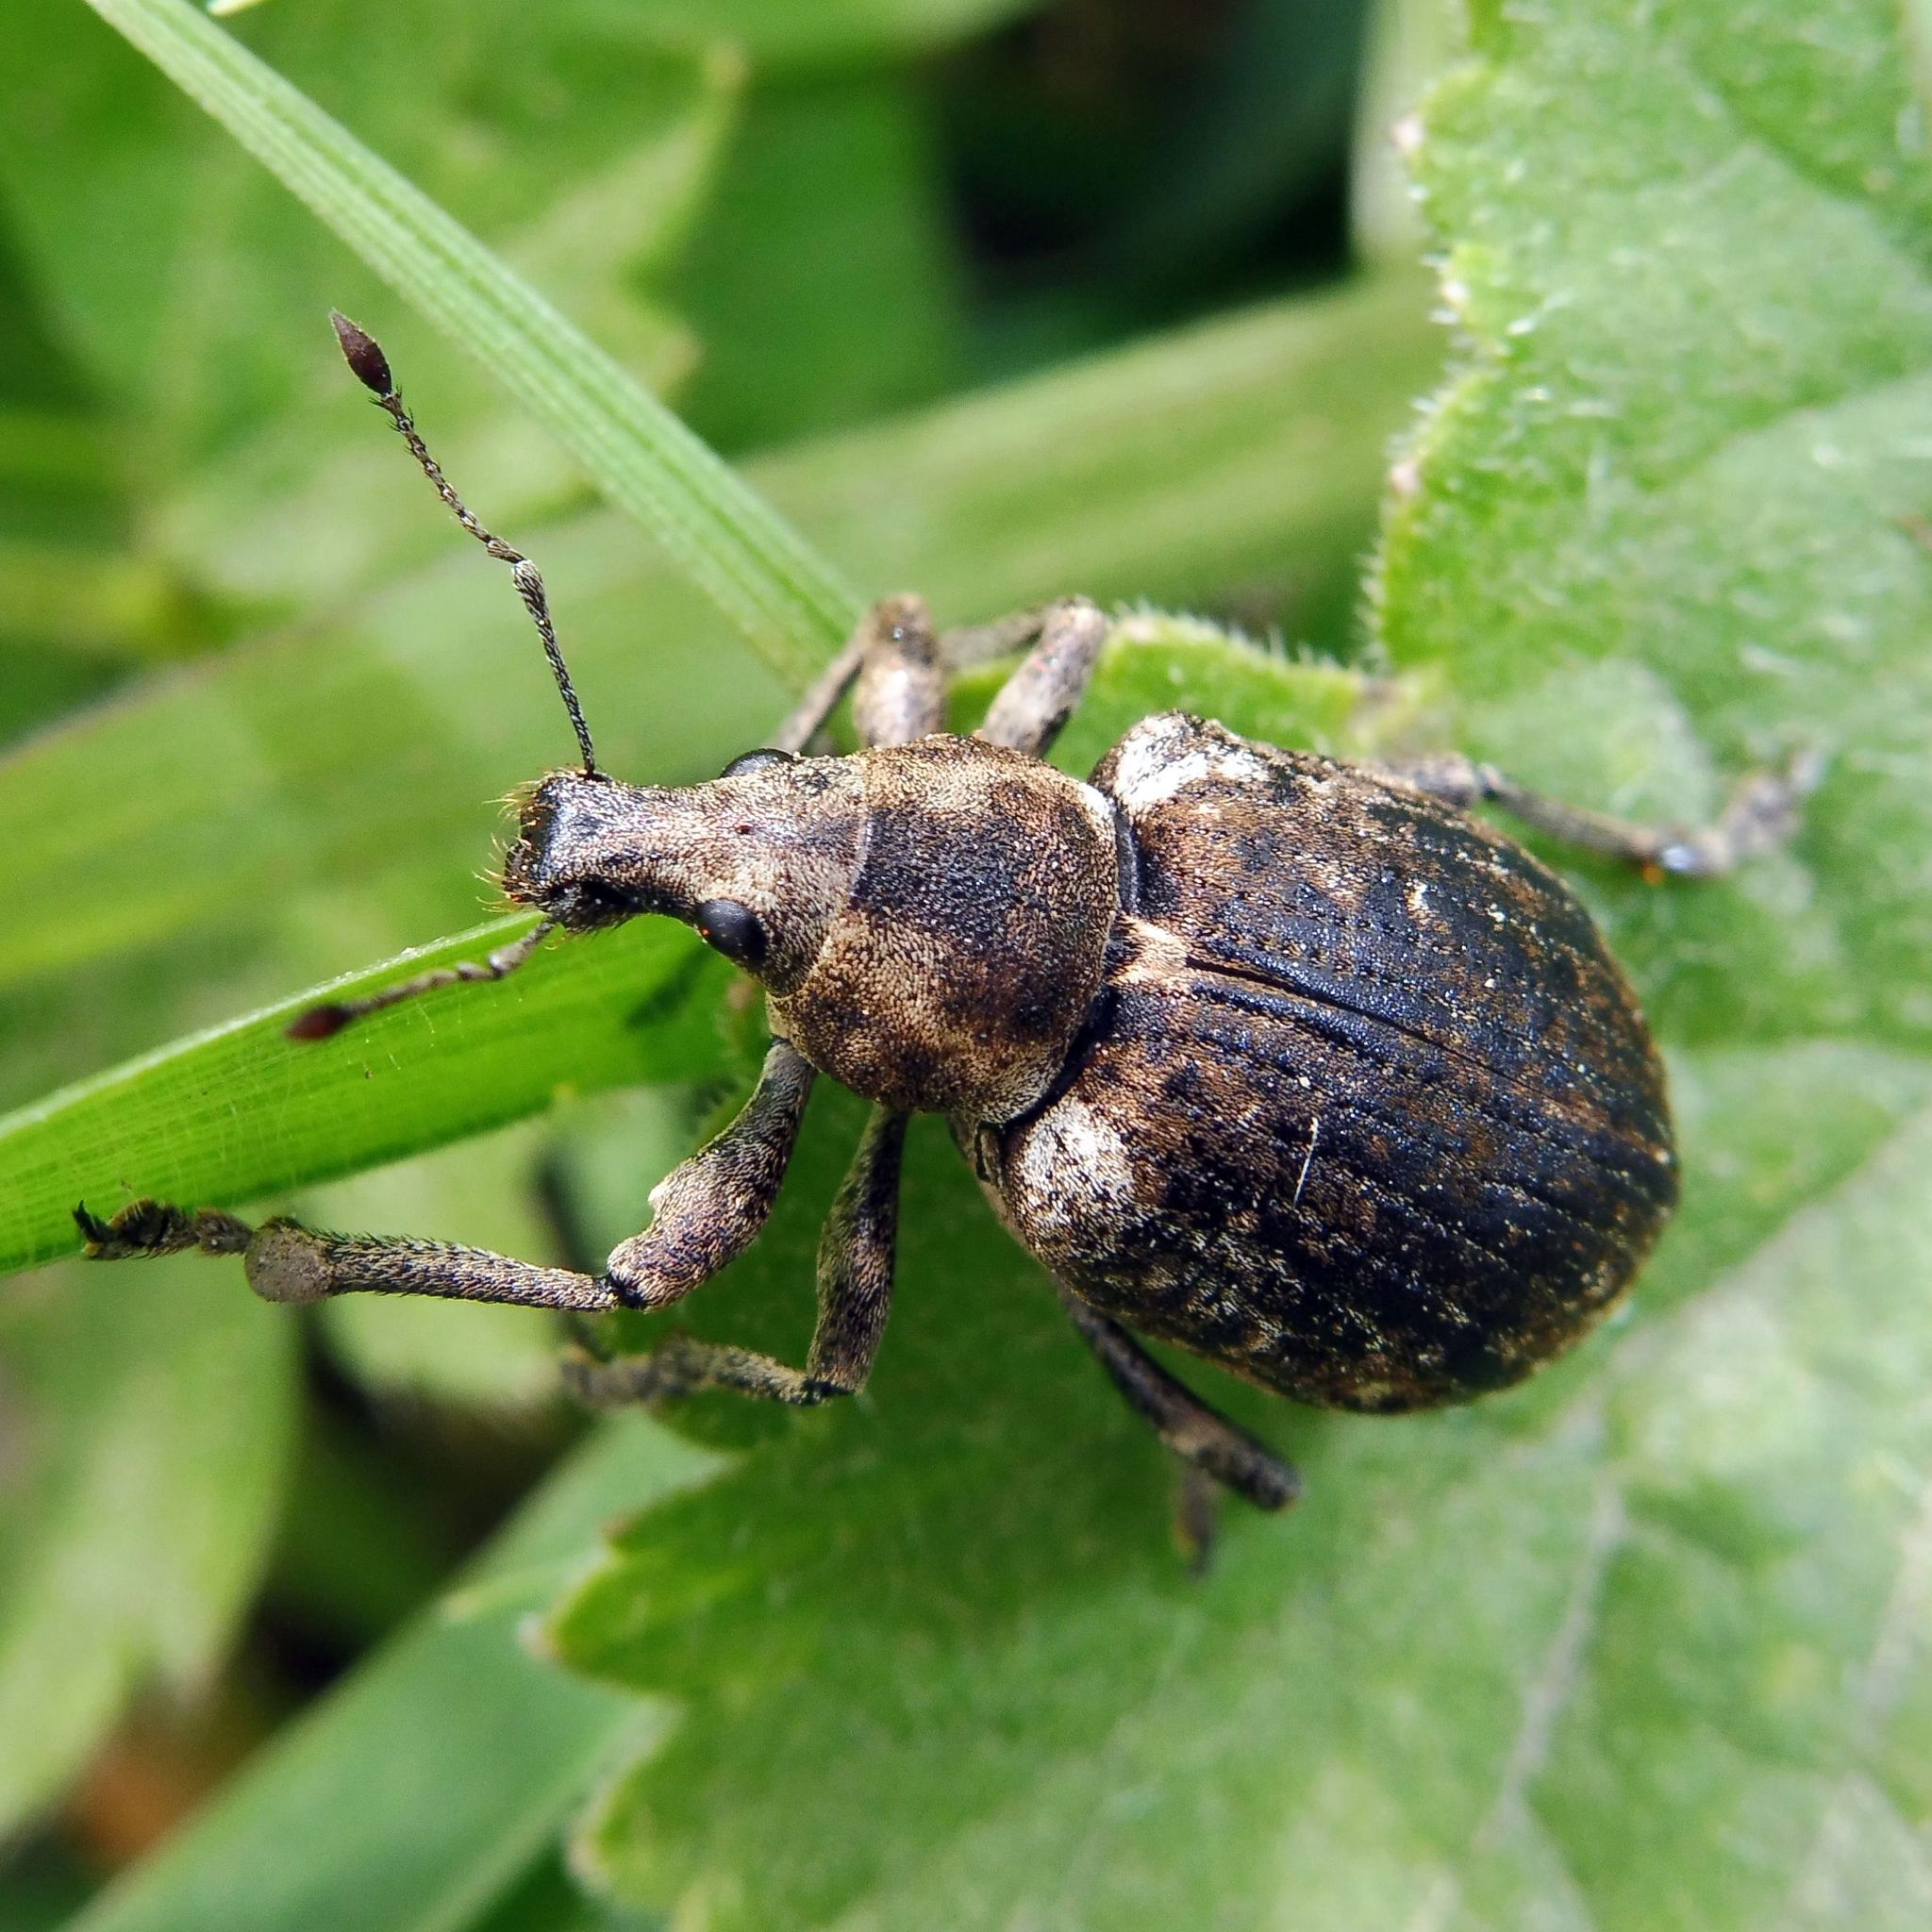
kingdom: Animalia
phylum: Arthropoda
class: Insecta
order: Coleoptera
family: Curculionidae
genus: Liophloeus
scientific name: Liophloeus tessulatus
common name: Weevil
